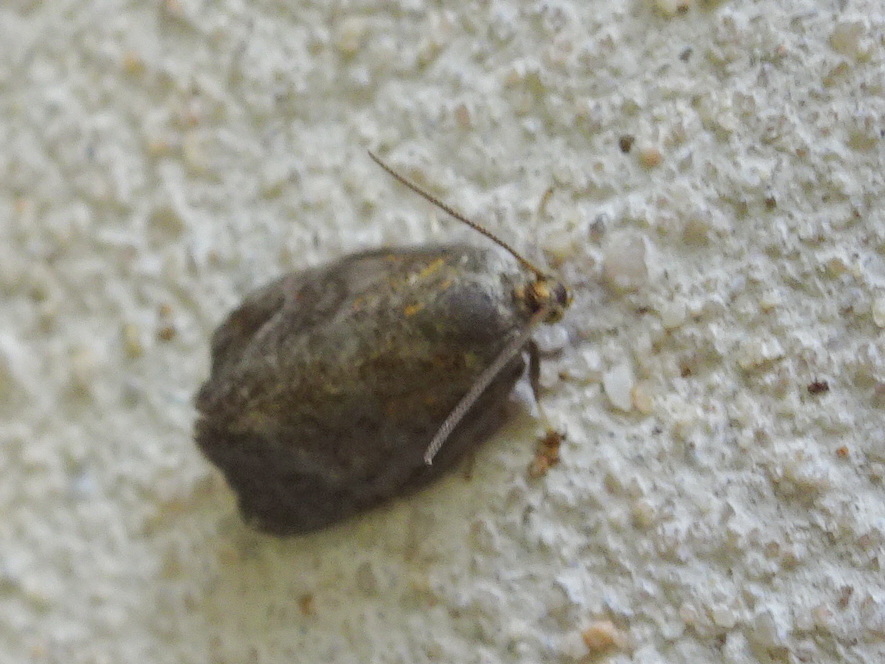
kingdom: Animalia
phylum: Arthropoda
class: Insecta
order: Lepidoptera
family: Tortricidae
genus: Ptycholoma
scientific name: Ptycholoma lecheana
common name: Leches twist moth
